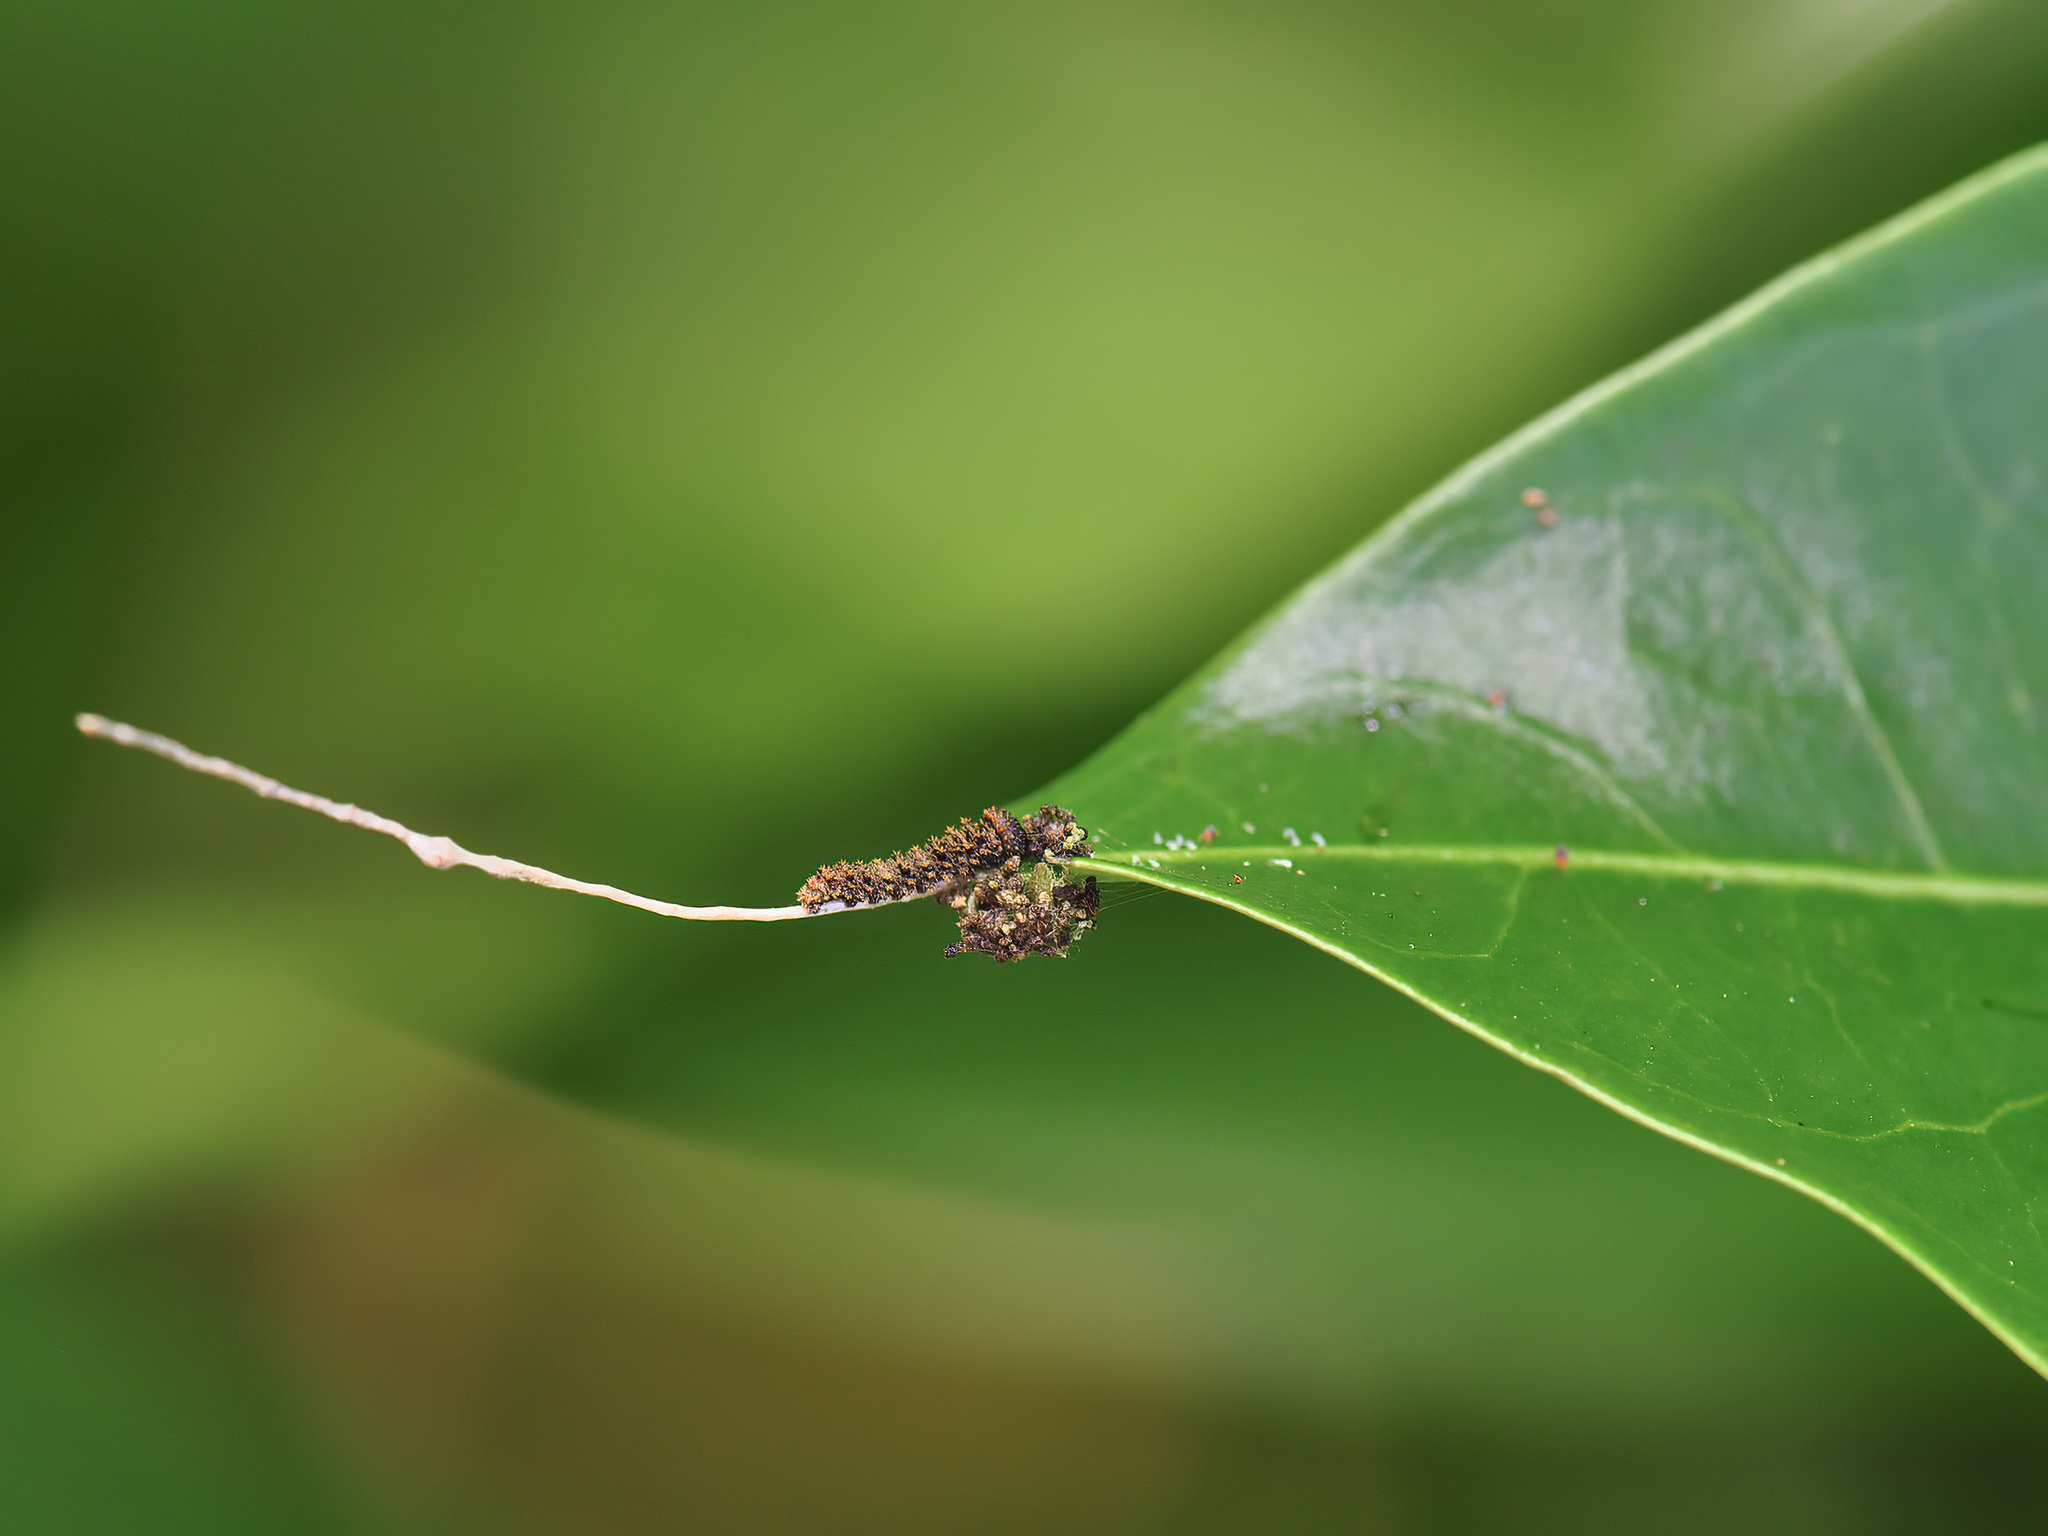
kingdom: Animalia
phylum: Arthropoda
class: Insecta
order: Lepidoptera
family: Nymphalidae
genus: Limenitis
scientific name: Limenitis Moduza procris
